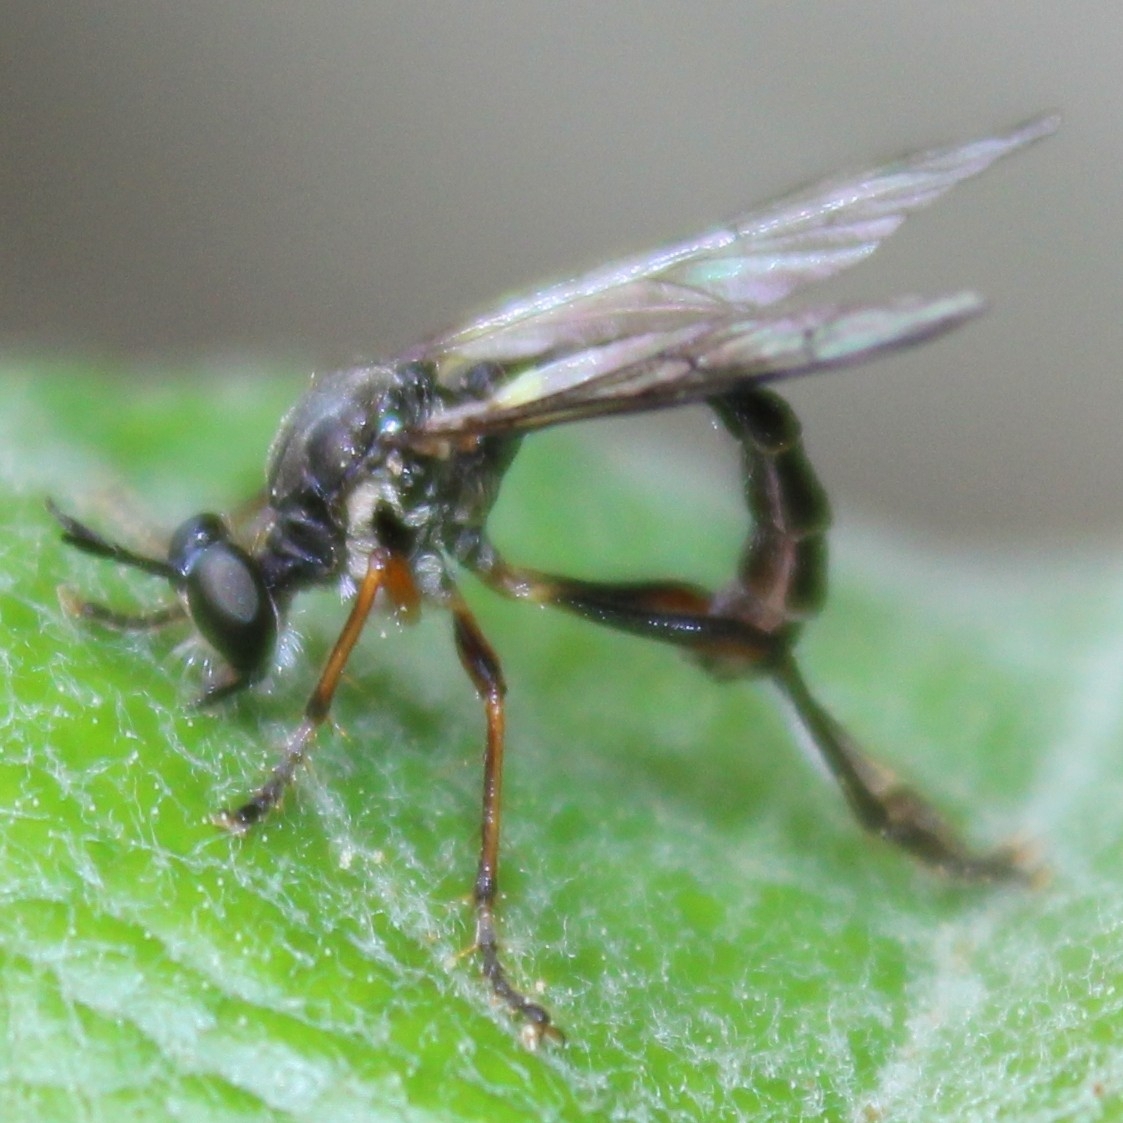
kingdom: Animalia
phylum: Arthropoda
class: Insecta
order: Diptera
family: Asilidae
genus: Dioctria
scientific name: Dioctria hyalipennis
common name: Stripe-legged robberfly
